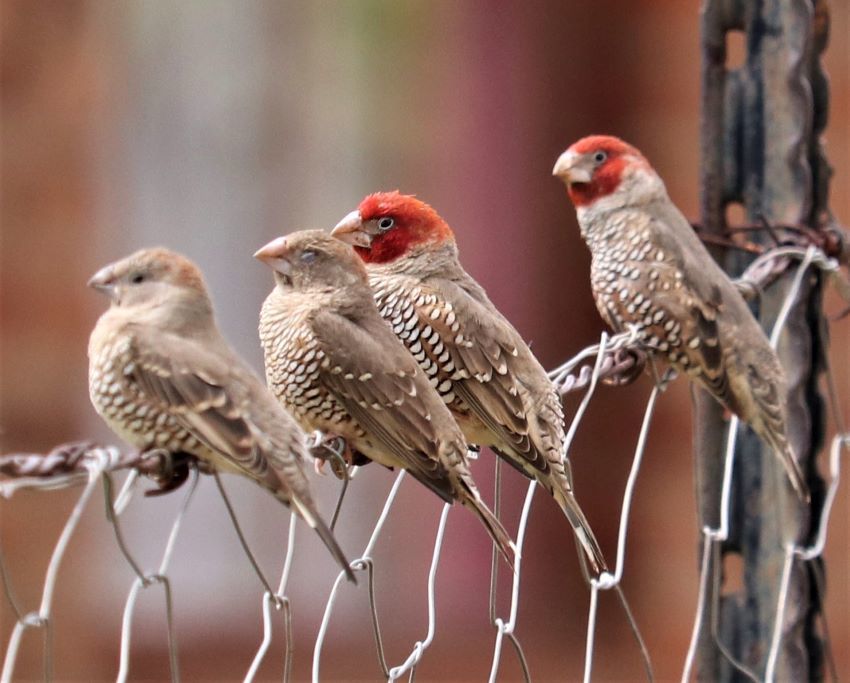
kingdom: Animalia
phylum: Chordata
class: Aves
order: Passeriformes
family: Estrildidae
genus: Amadina
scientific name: Amadina erythrocephala
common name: Red-headed finch
